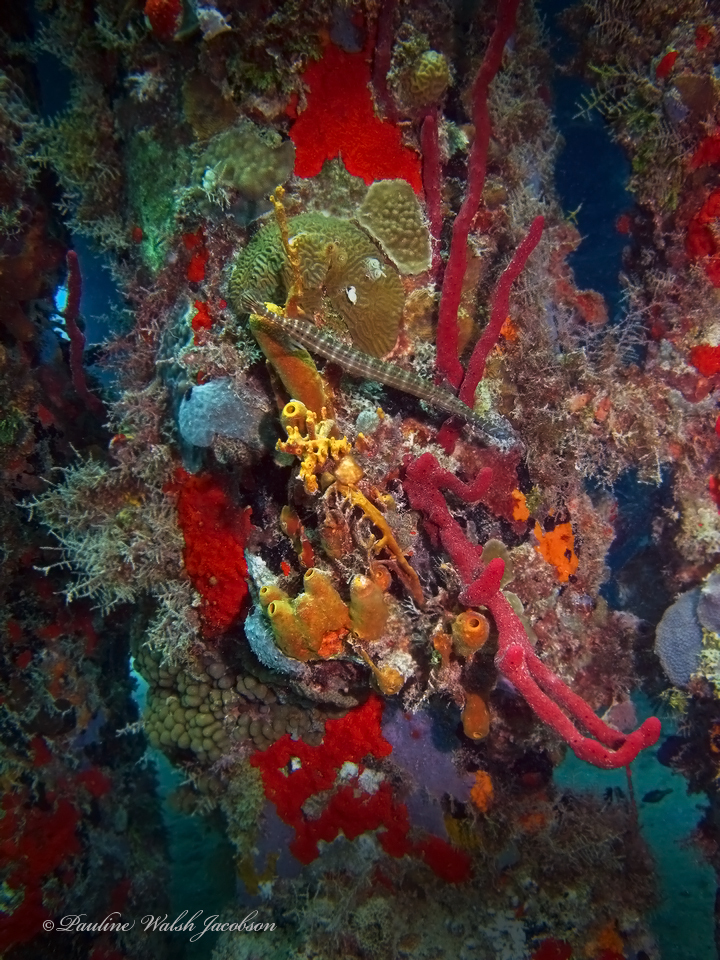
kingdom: Animalia
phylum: Chordata
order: Syngnathiformes
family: Aulostomidae
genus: Aulostomus
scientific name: Aulostomus maculatus
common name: West atlantic trumpetfish
